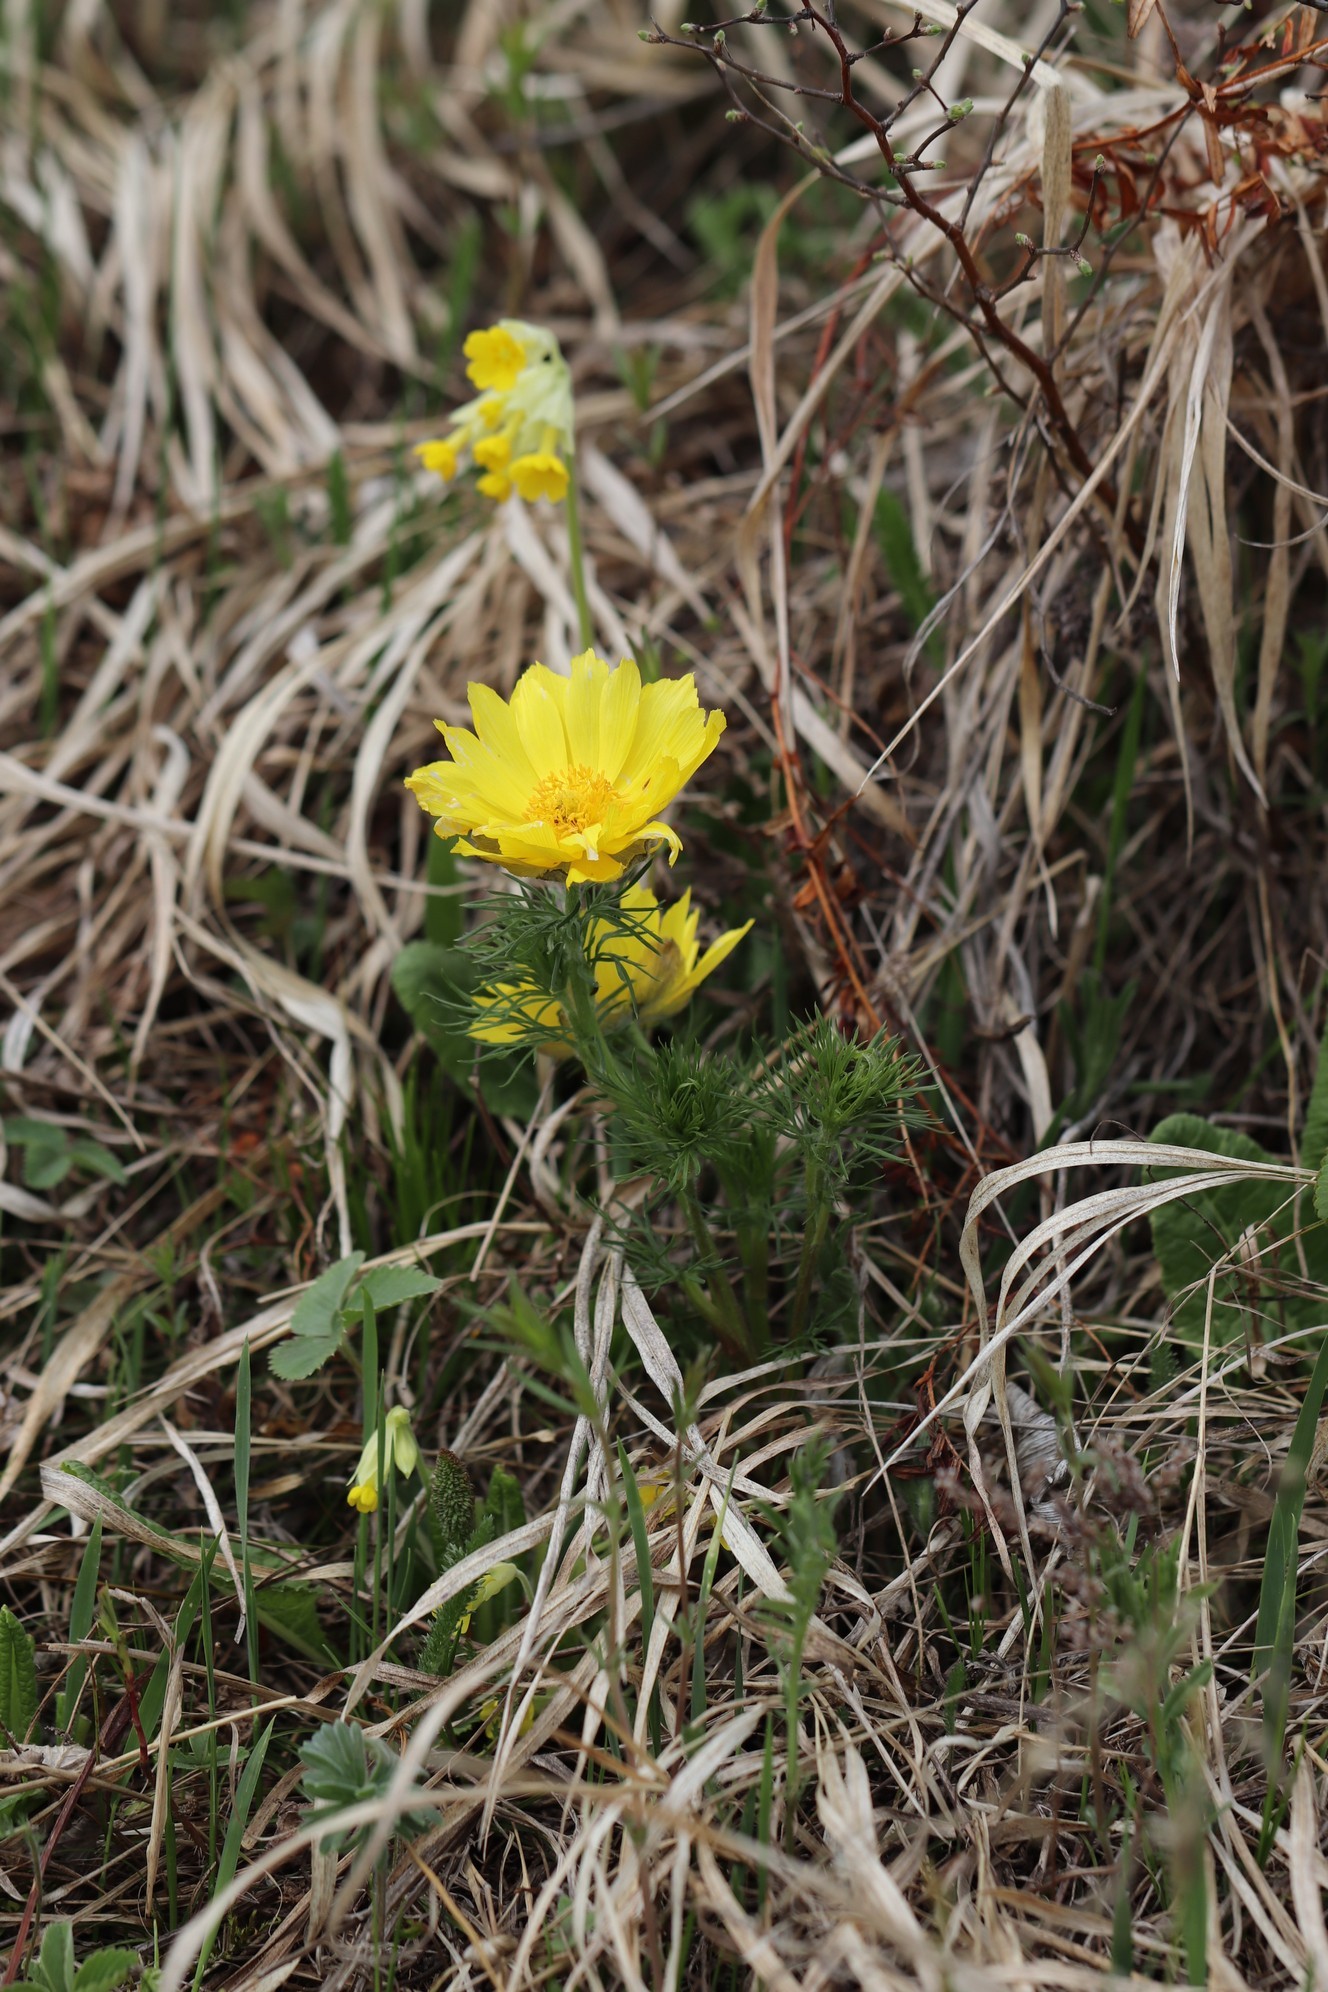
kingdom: Plantae
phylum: Tracheophyta
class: Magnoliopsida
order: Ranunculales
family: Ranunculaceae
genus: Adonis
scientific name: Adonis vernalis
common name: Yellow pheasants-eye
